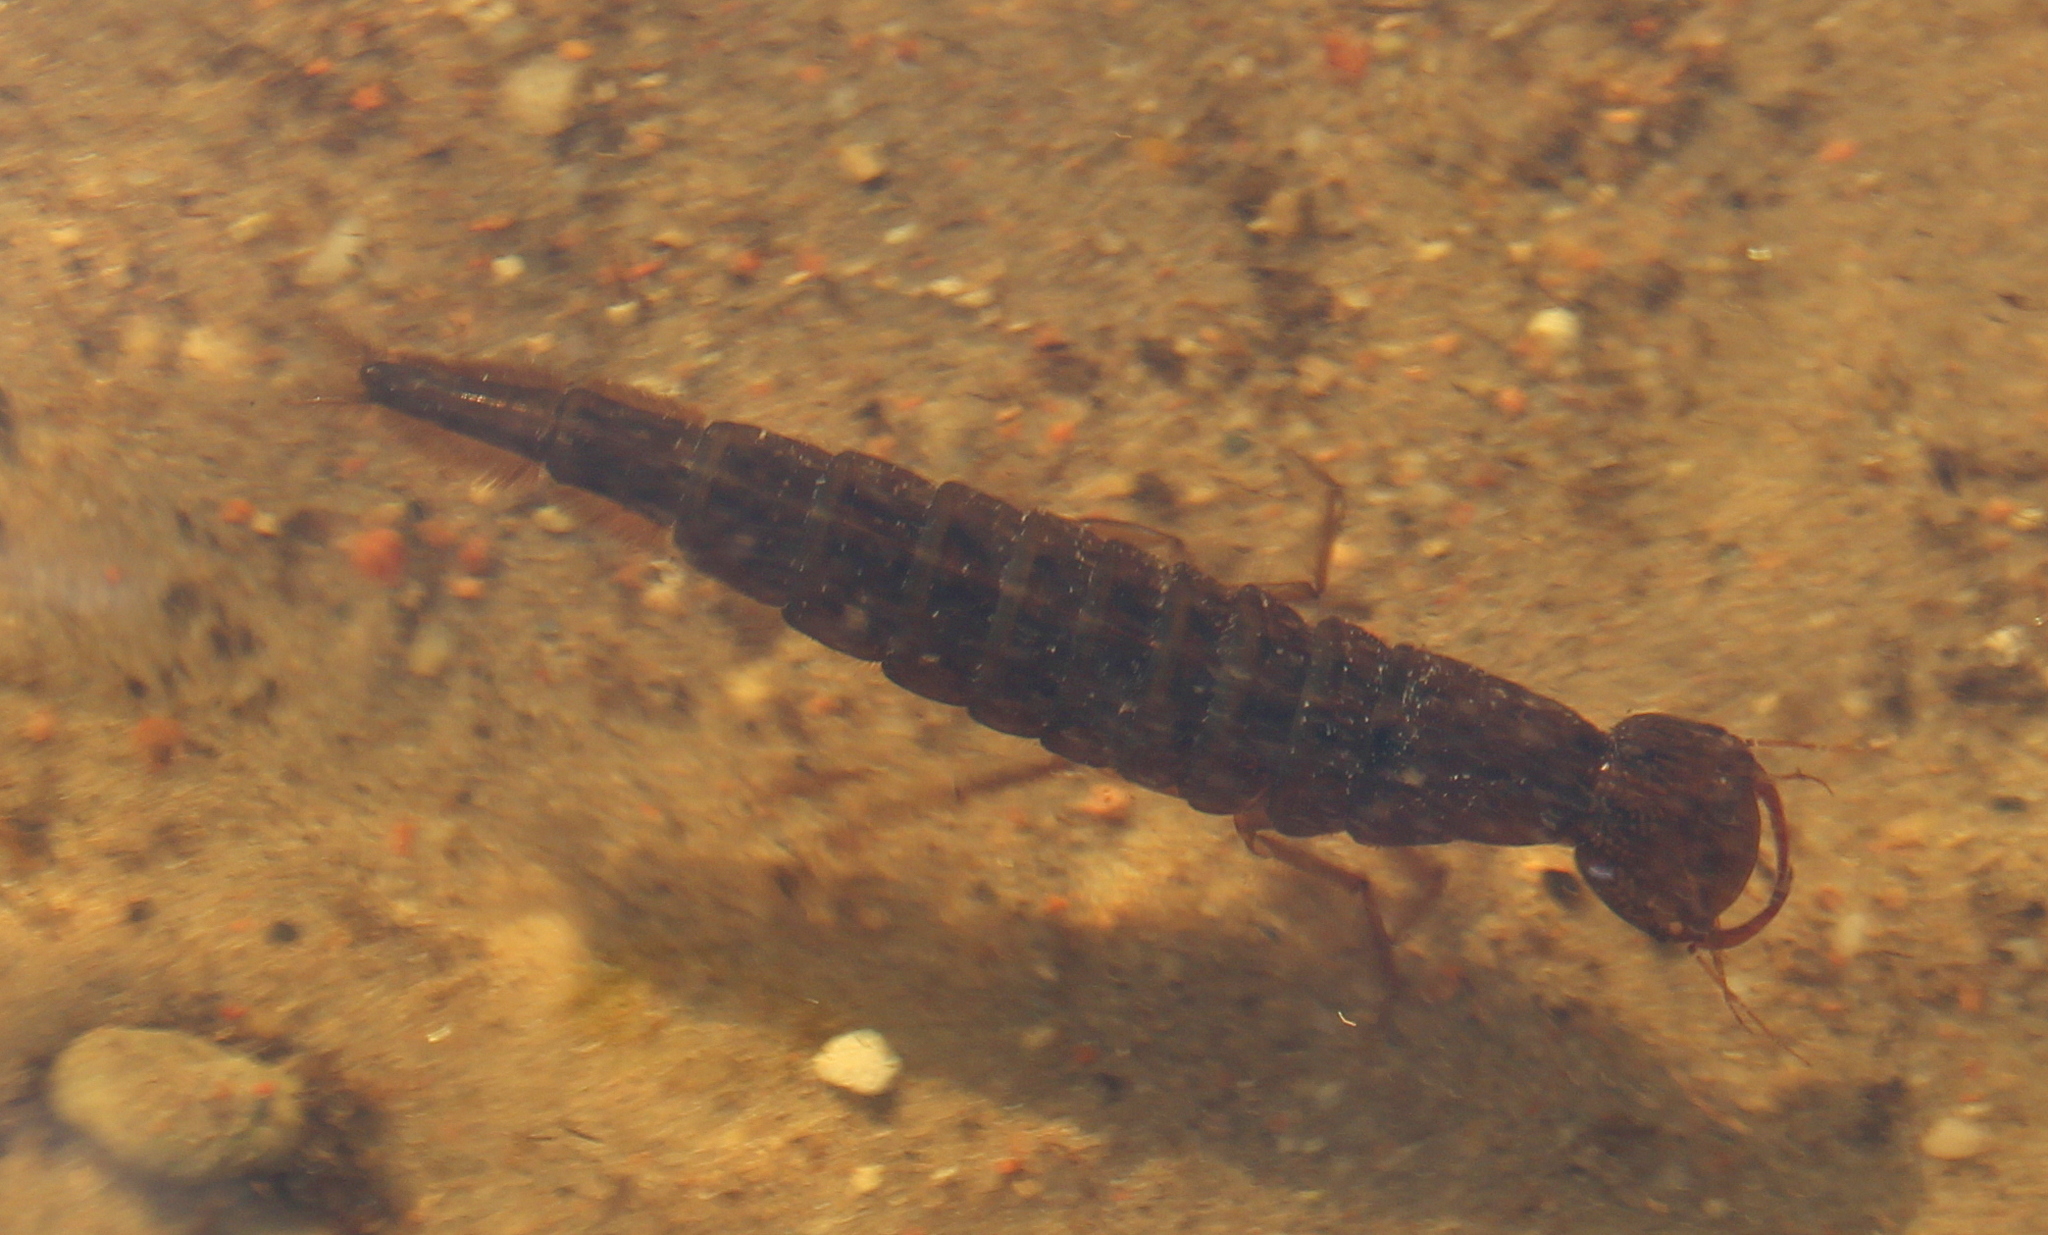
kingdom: Animalia
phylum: Arthropoda
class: Insecta
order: Coleoptera
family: Dytiscidae
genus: Dytiscus
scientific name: Dytiscus
